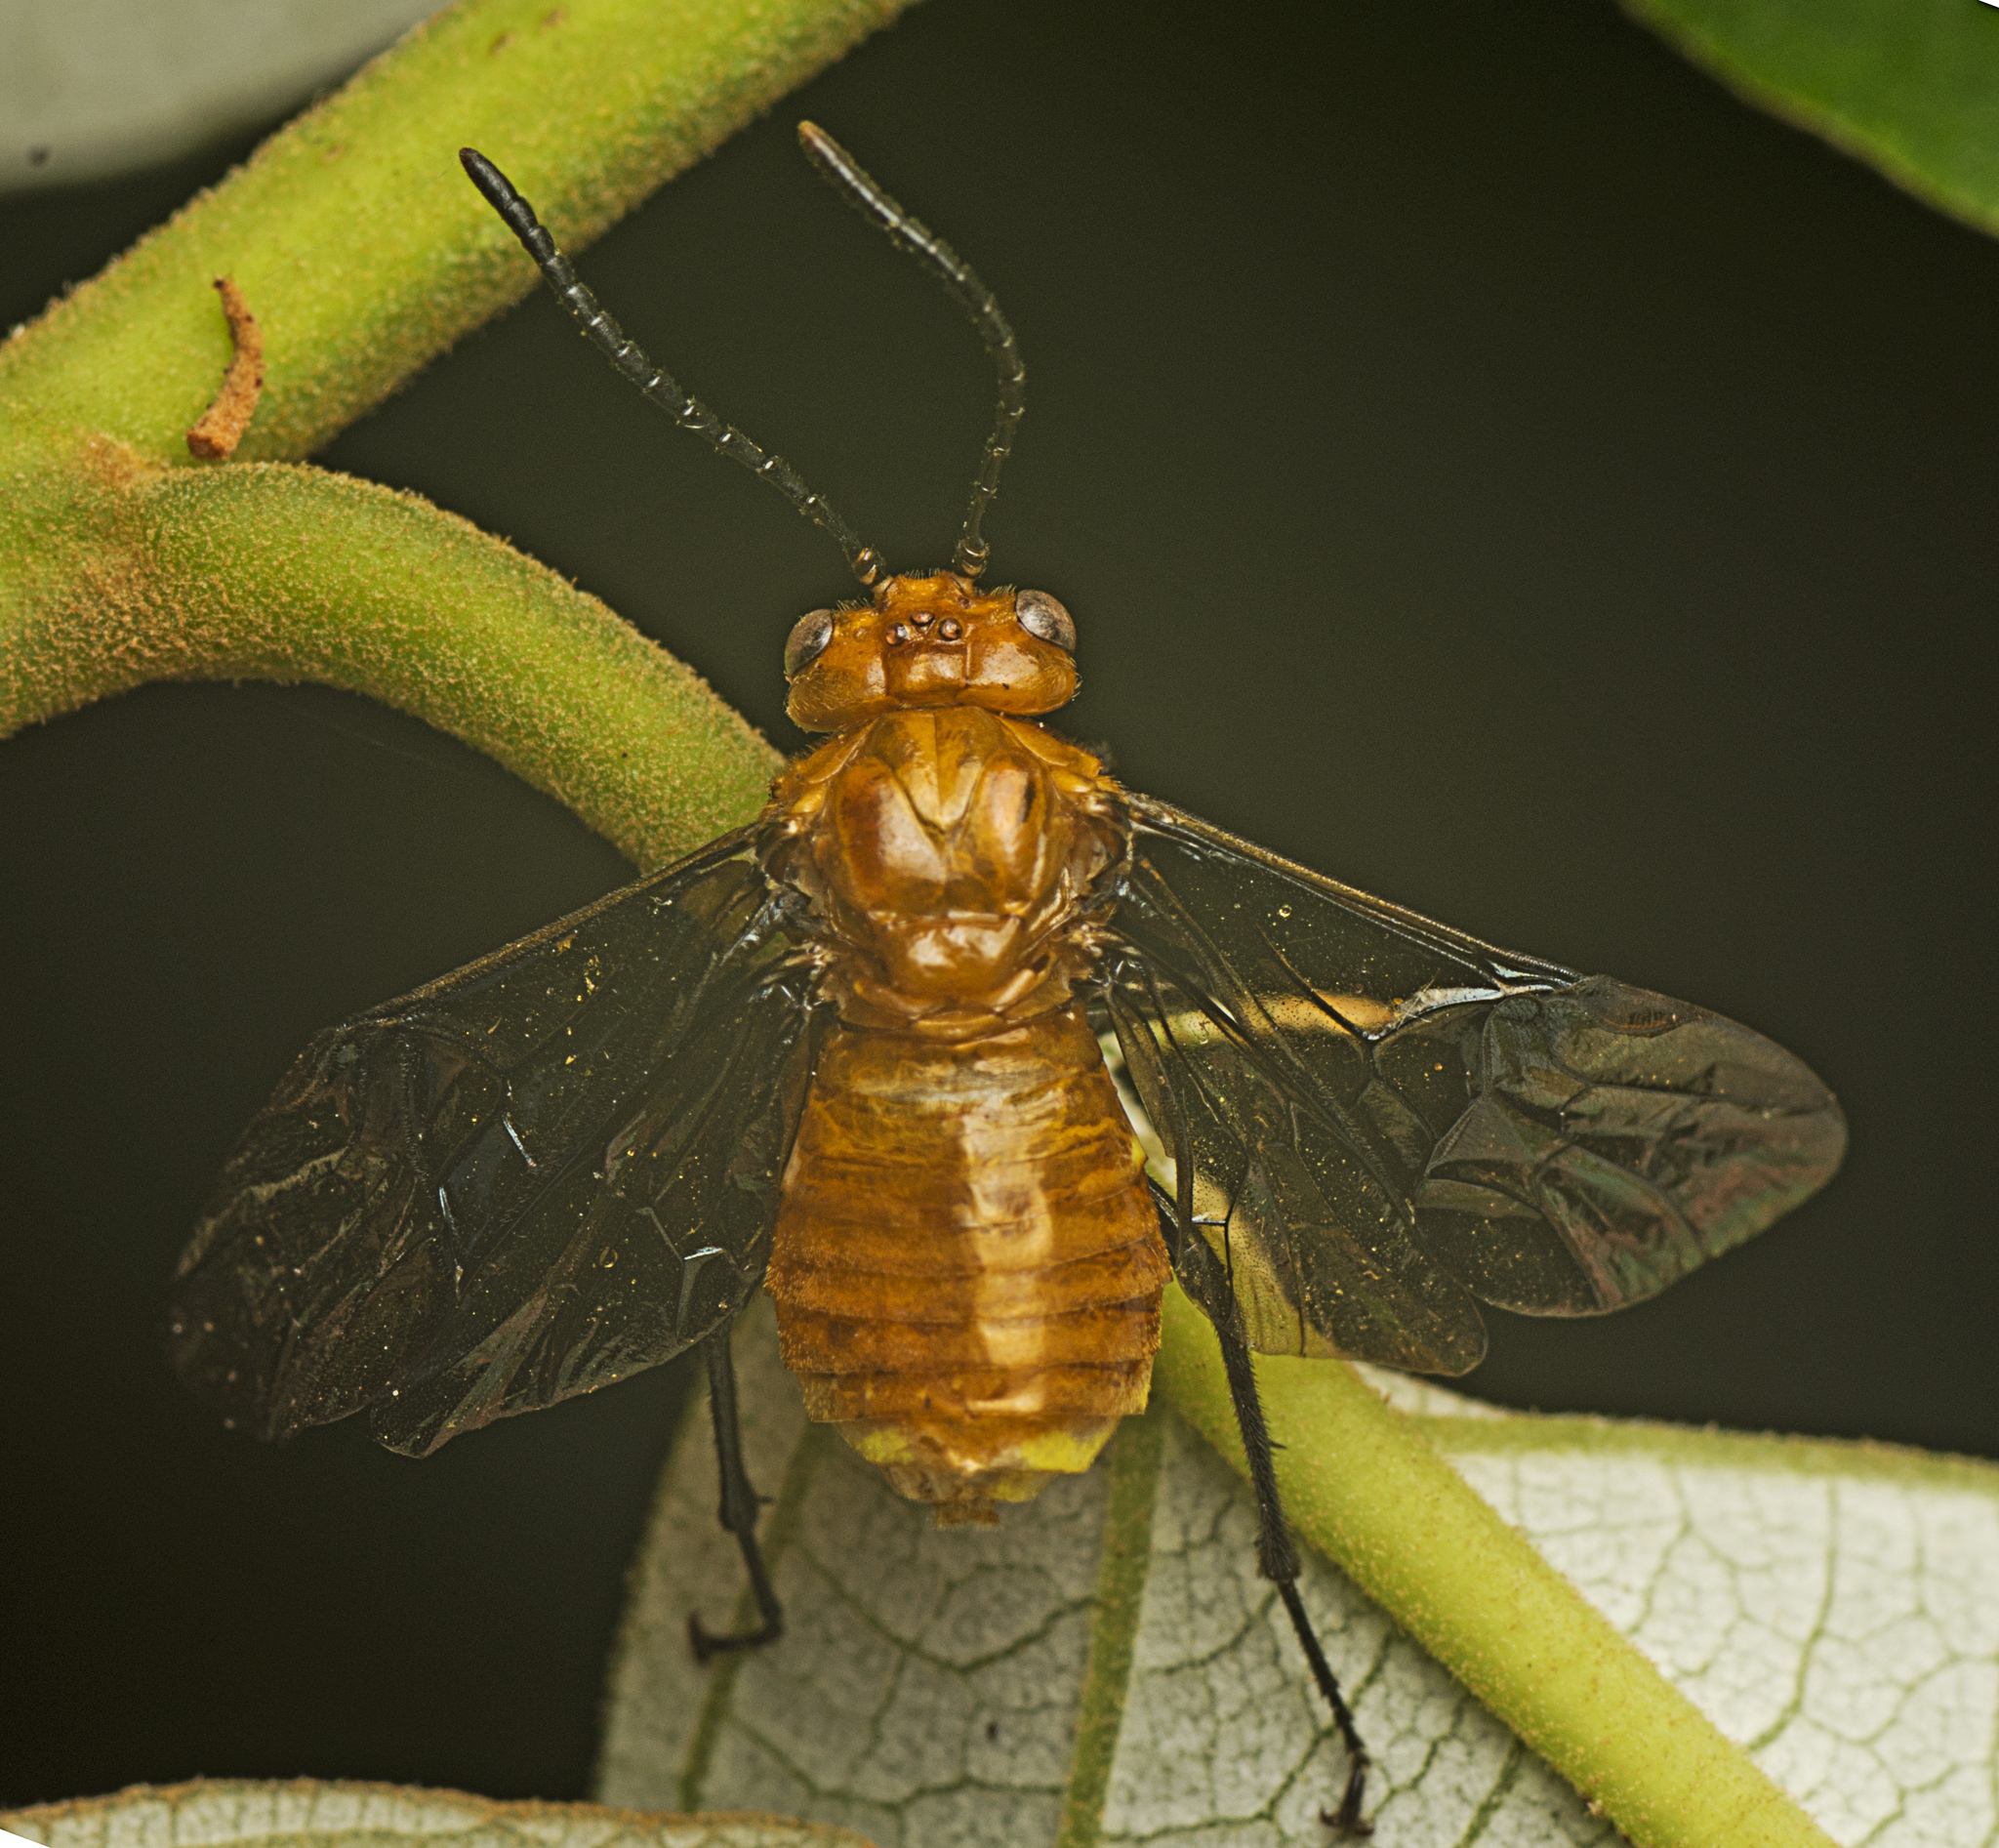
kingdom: Animalia
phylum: Arthropoda
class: Insecta
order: Hymenoptera
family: Pergidae
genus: Philomastix
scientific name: Philomastix
